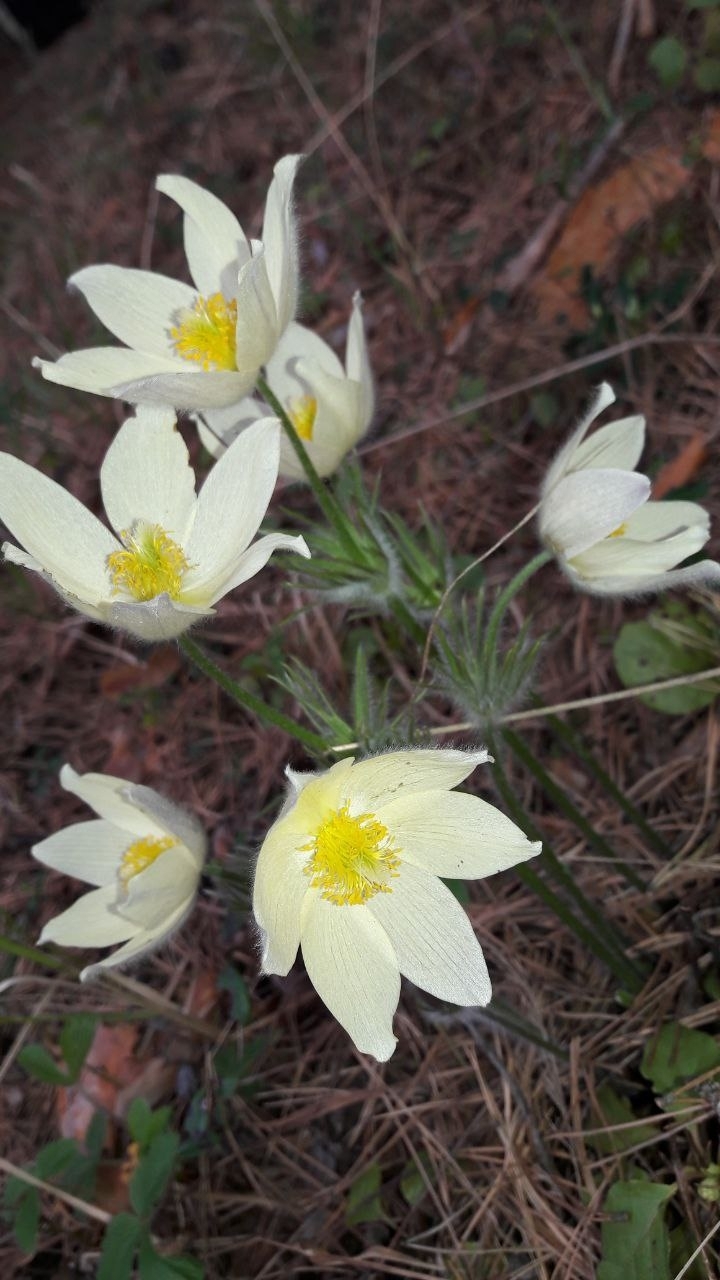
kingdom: Plantae
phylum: Tracheophyta
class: Magnoliopsida
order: Ranunculales
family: Ranunculaceae
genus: Pulsatilla
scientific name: Pulsatilla patens
